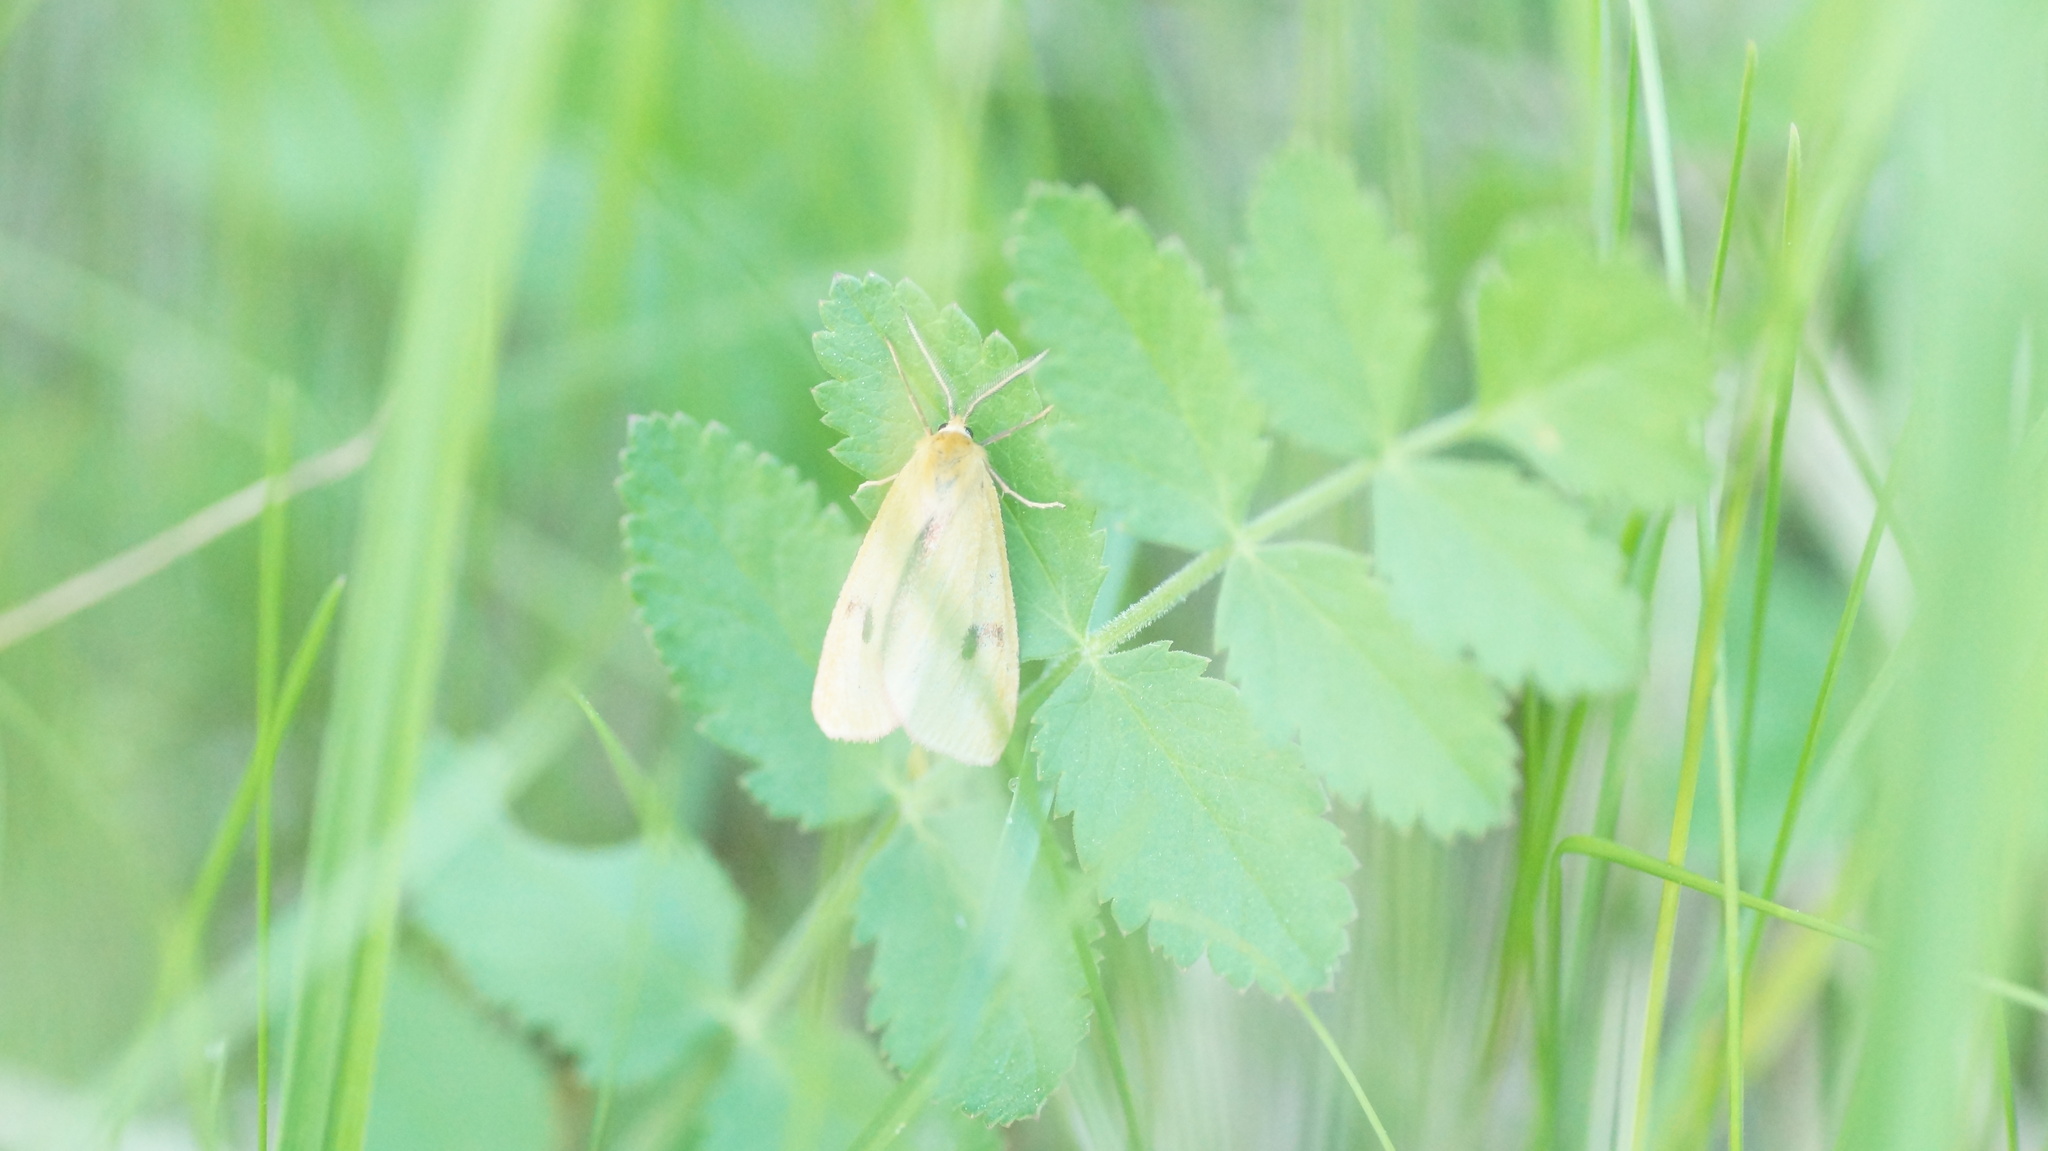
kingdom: Animalia
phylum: Arthropoda
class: Insecta
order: Lepidoptera
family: Erebidae
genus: Diacrisia
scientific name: Diacrisia sannio
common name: Clouded buff
